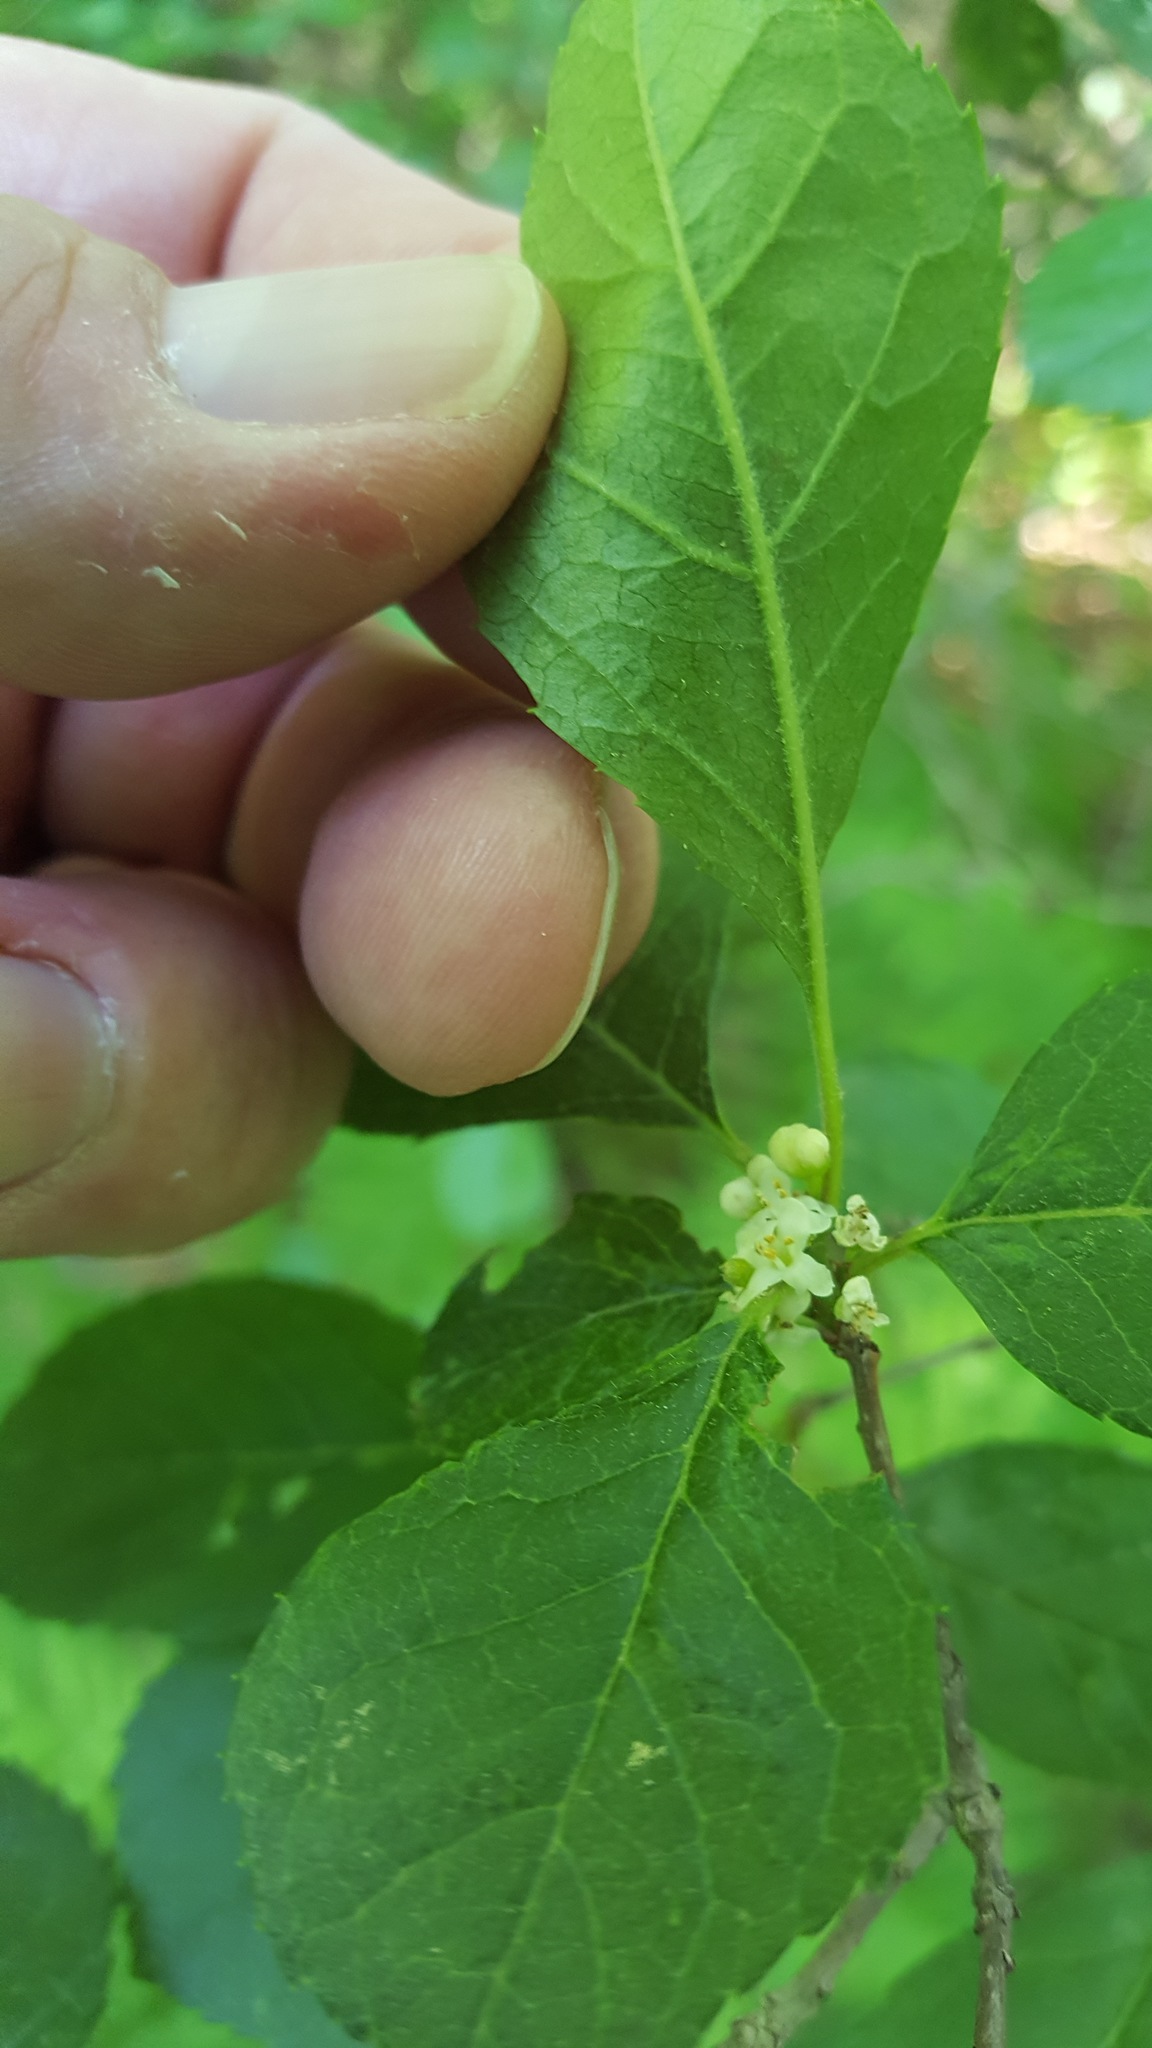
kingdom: Plantae
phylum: Tracheophyta
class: Magnoliopsida
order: Aquifoliales
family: Aquifoliaceae
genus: Ilex
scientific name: Ilex verticillata
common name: Virginia winterberry
